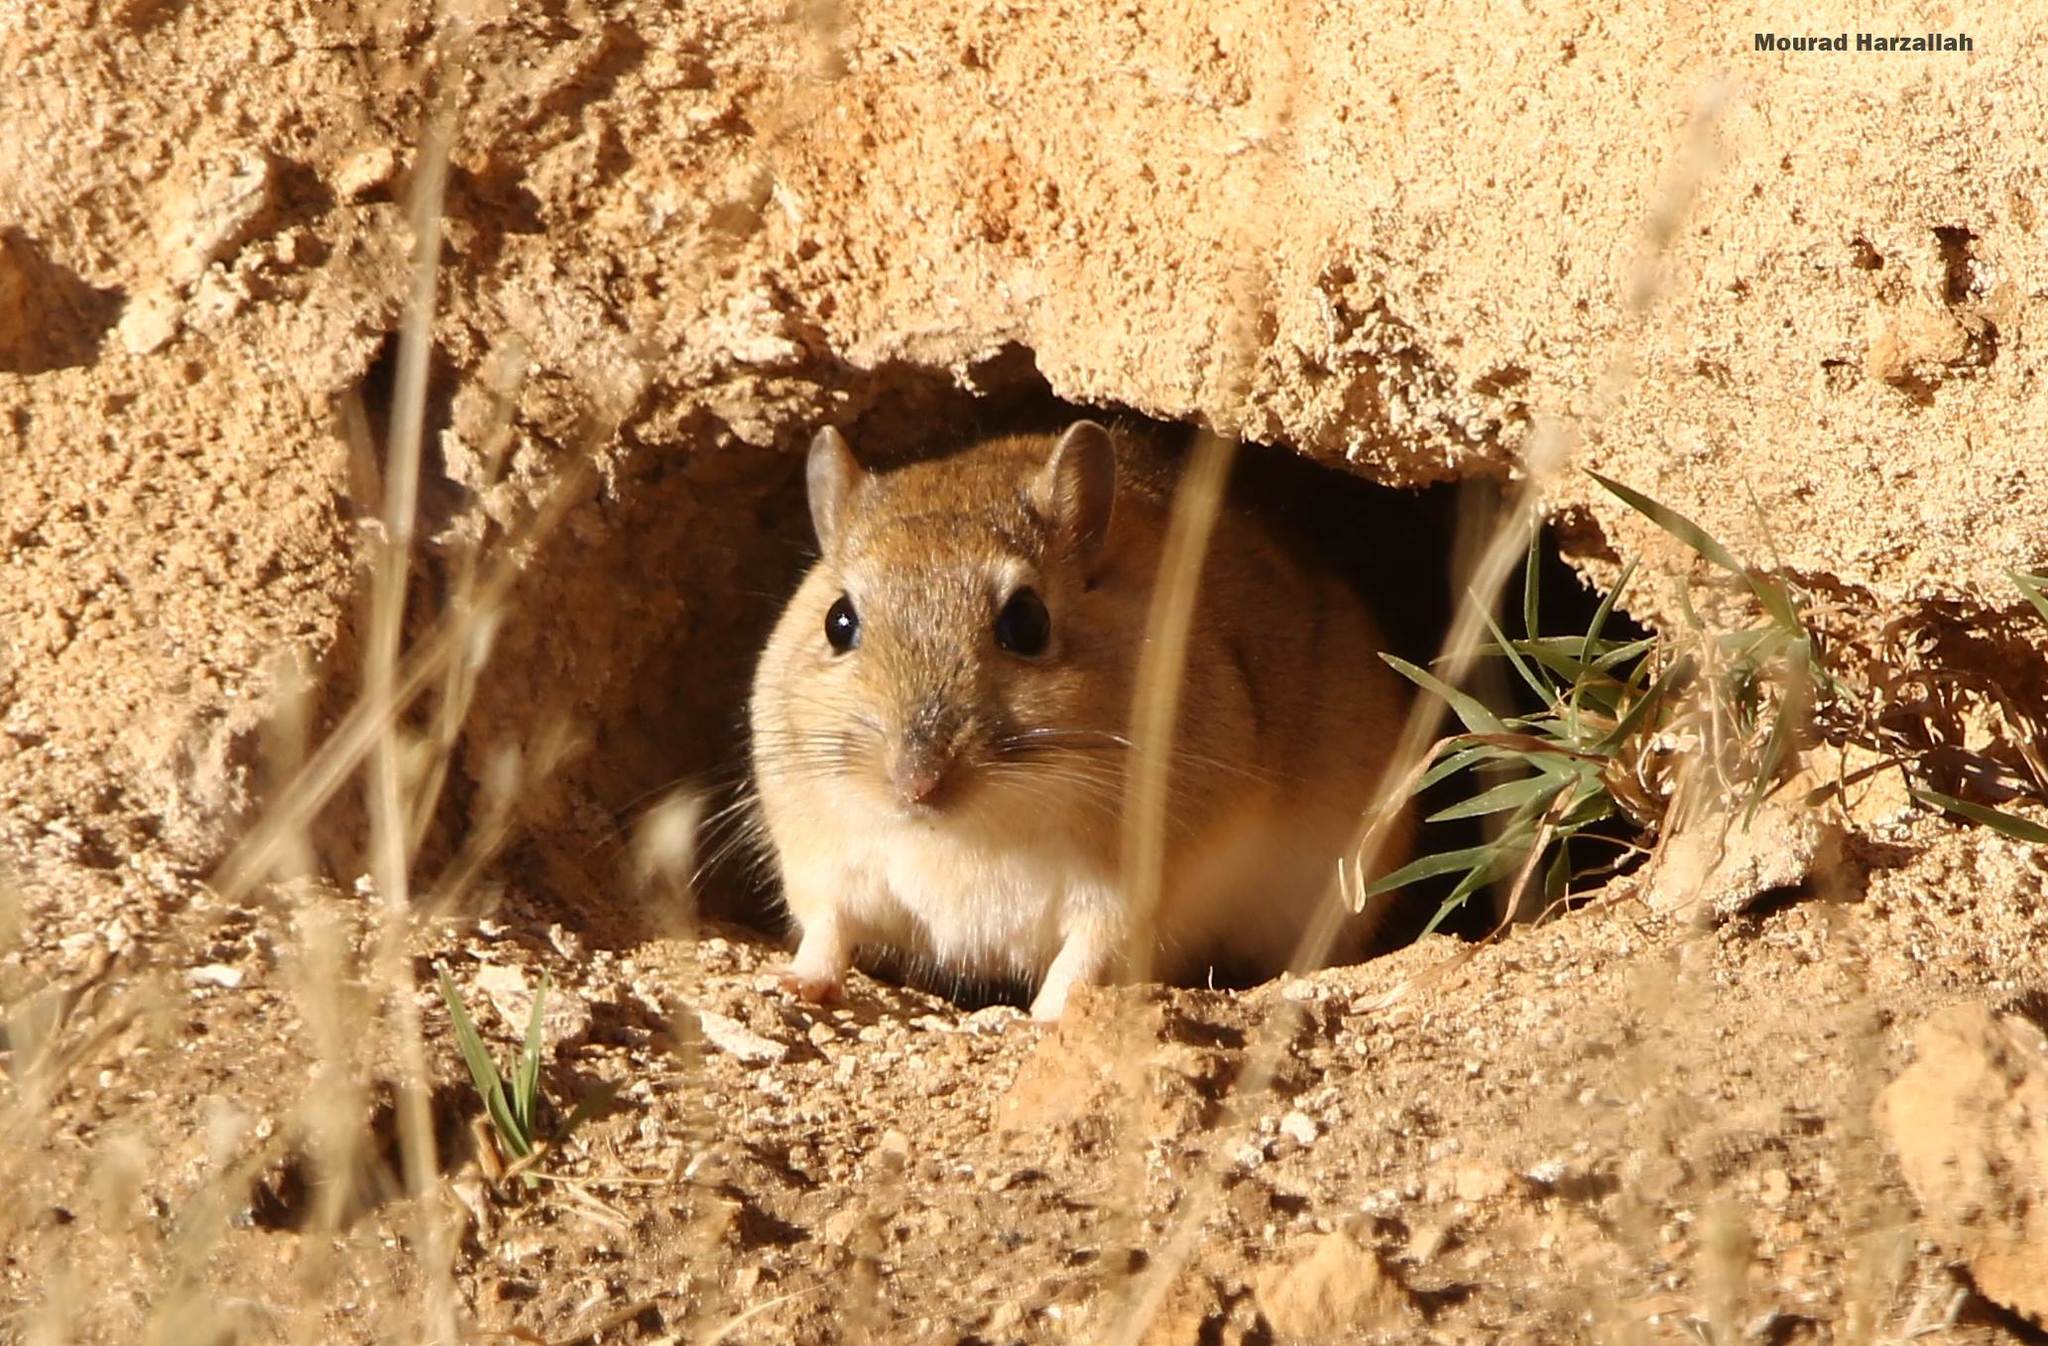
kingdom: Animalia
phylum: Chordata
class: Mammalia
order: Rodentia
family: Muridae
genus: Meriones
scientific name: Meriones shawi
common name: Shaw's jird
